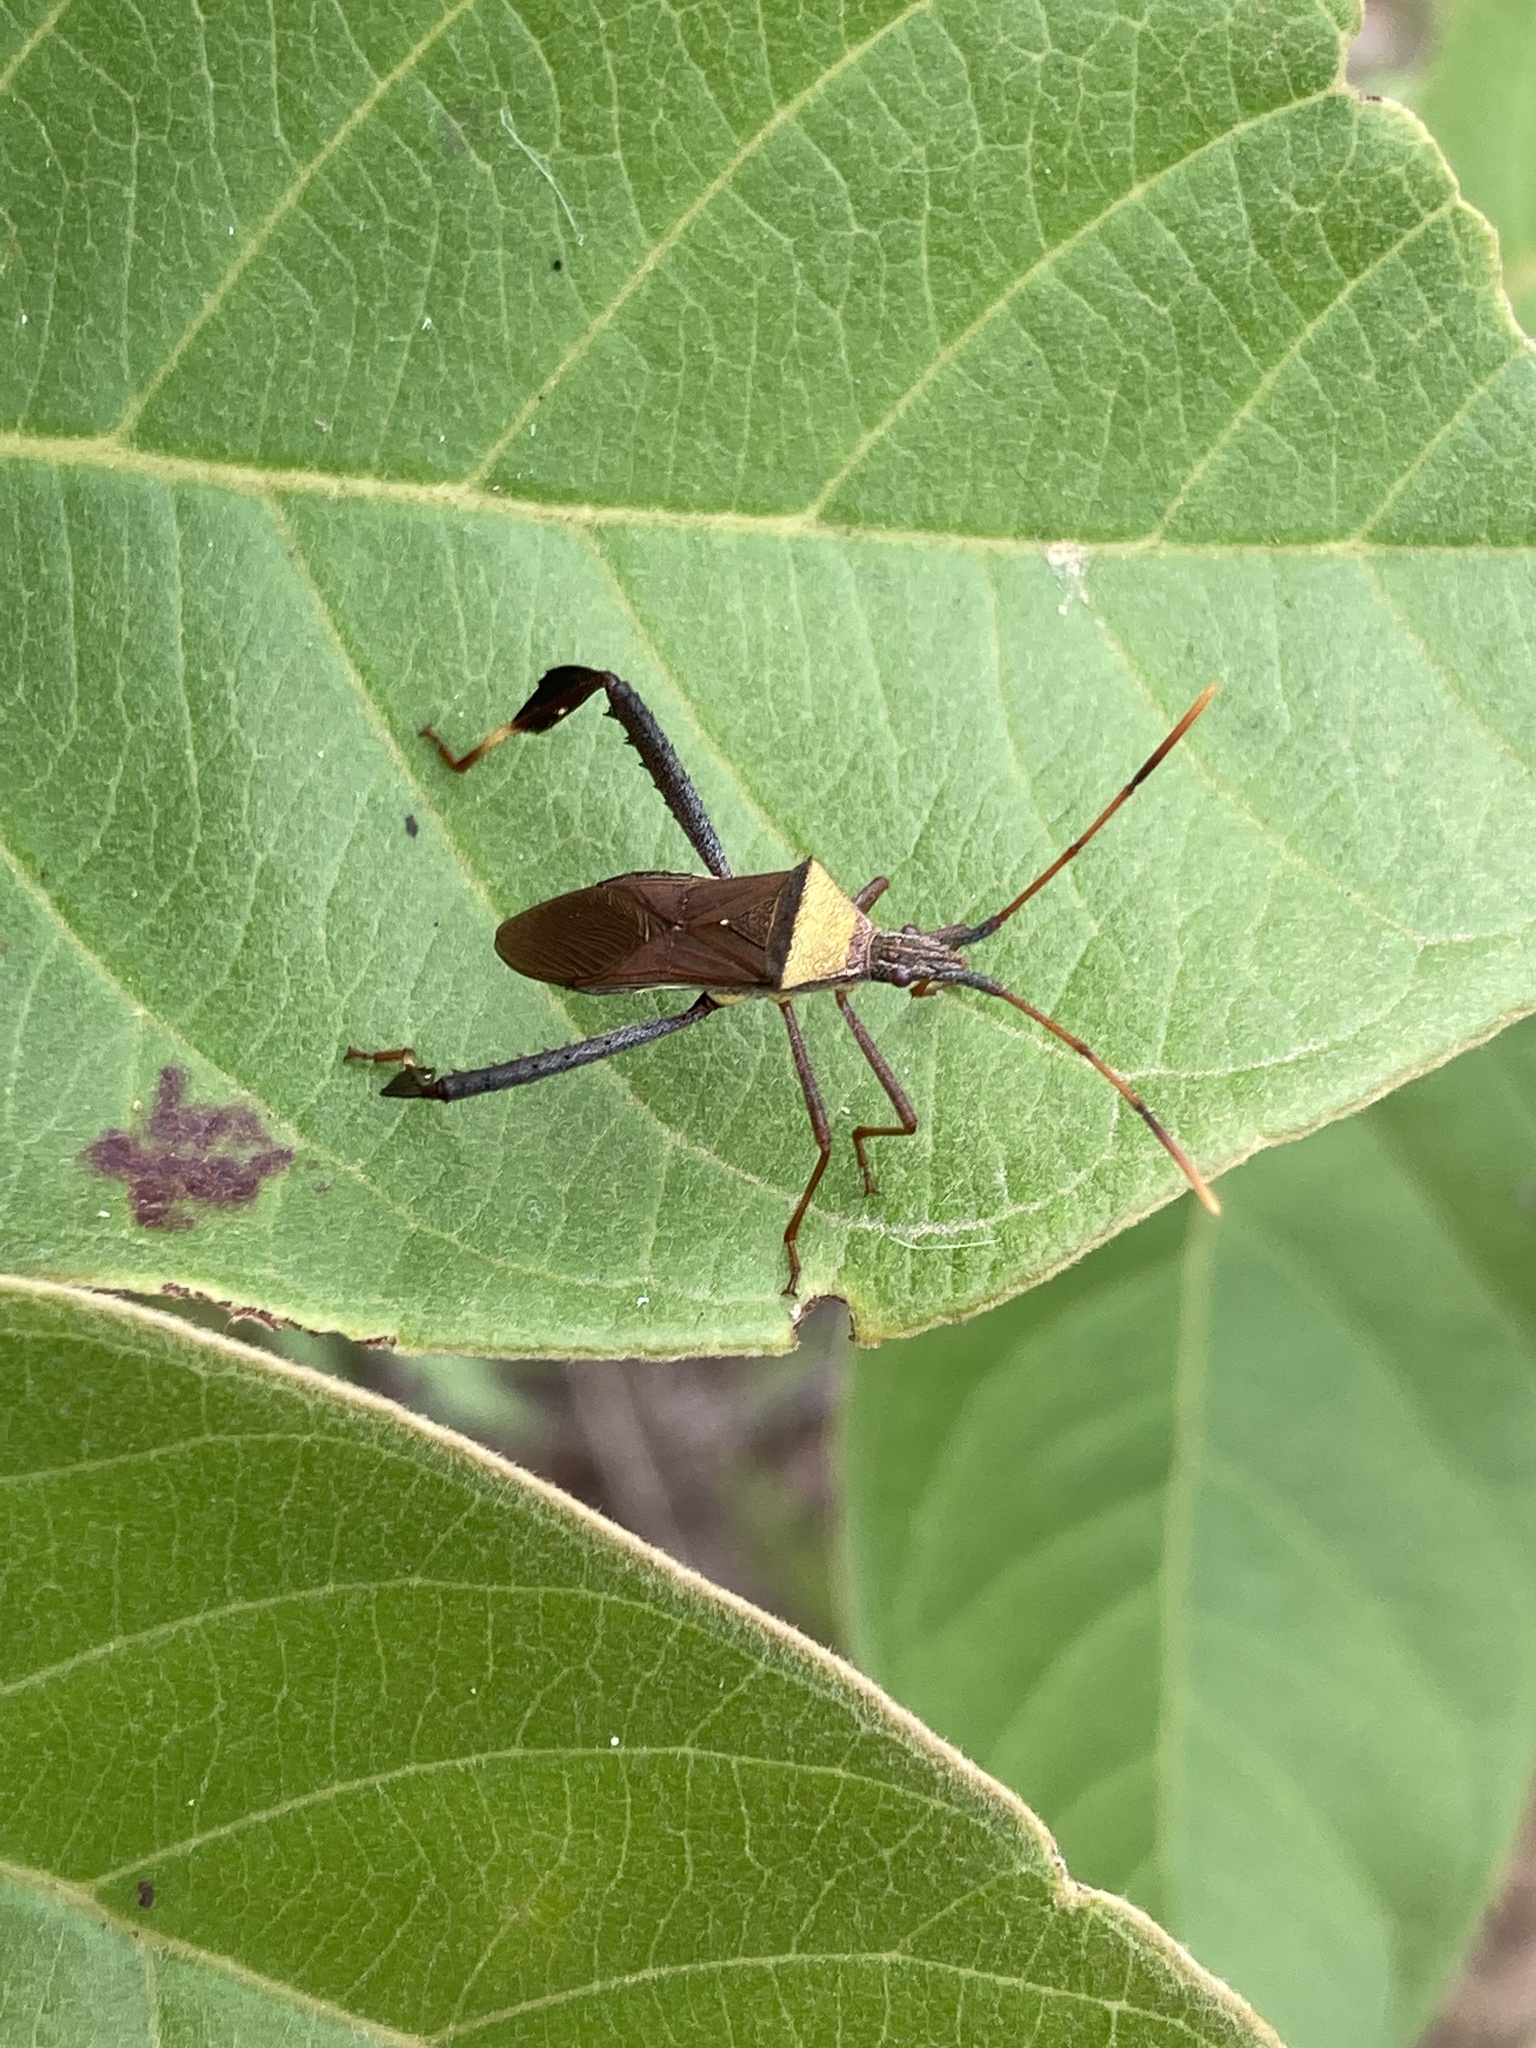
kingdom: Animalia
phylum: Arthropoda
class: Insecta
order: Hemiptera
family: Coreidae
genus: Leptoglossus
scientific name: Leptoglossus cinctus
